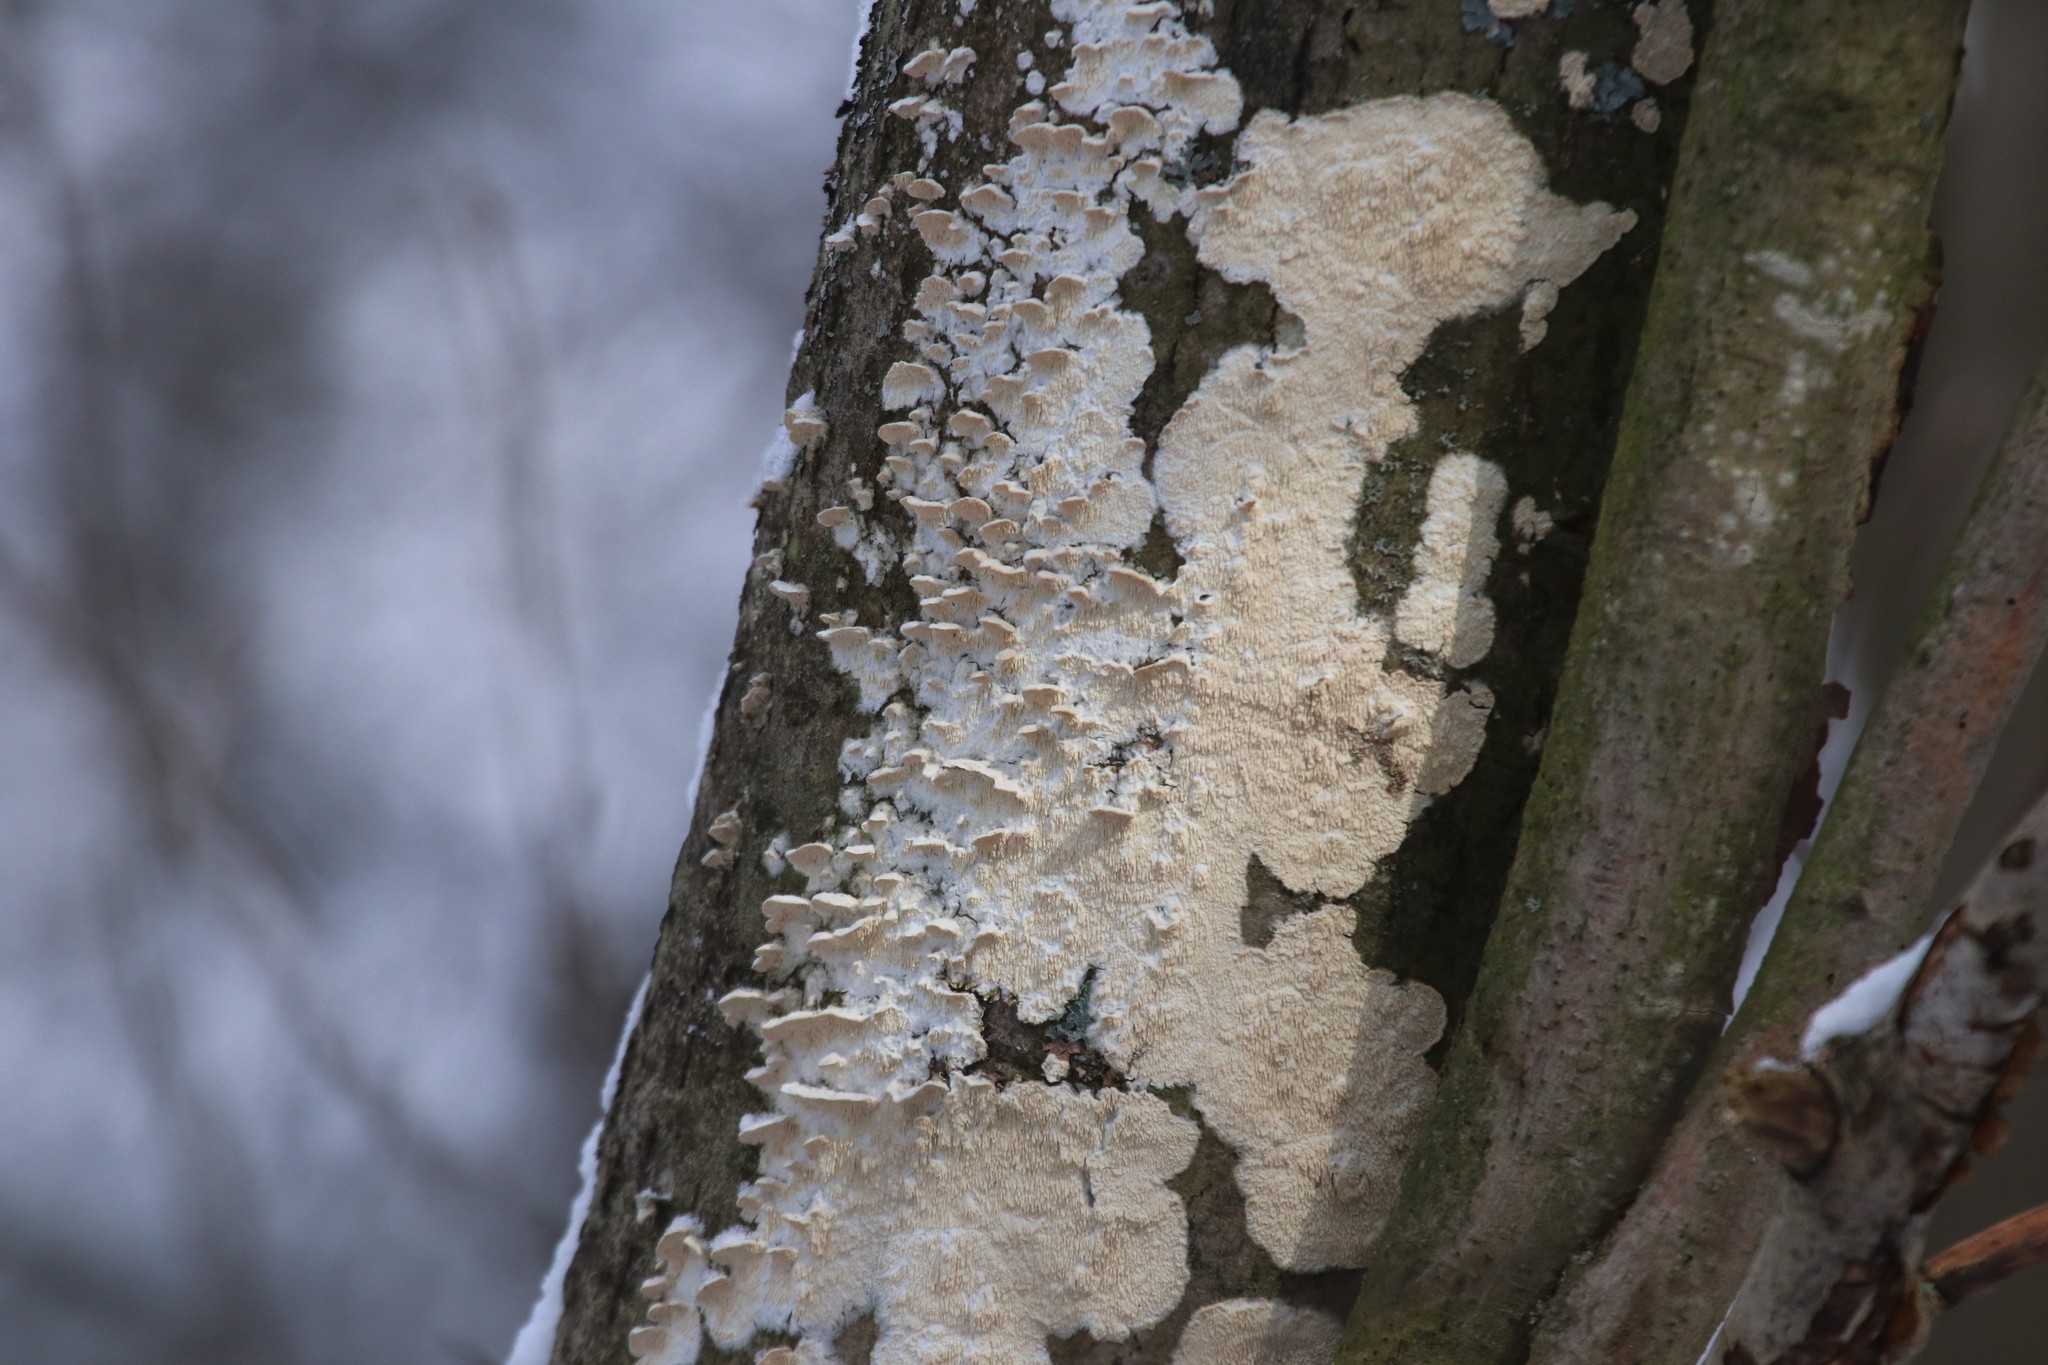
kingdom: Fungi
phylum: Basidiomycota
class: Agaricomycetes
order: Polyporales
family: Irpicaceae
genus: Irpex
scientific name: Irpex lacteus
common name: Milk-white toothed polypore
